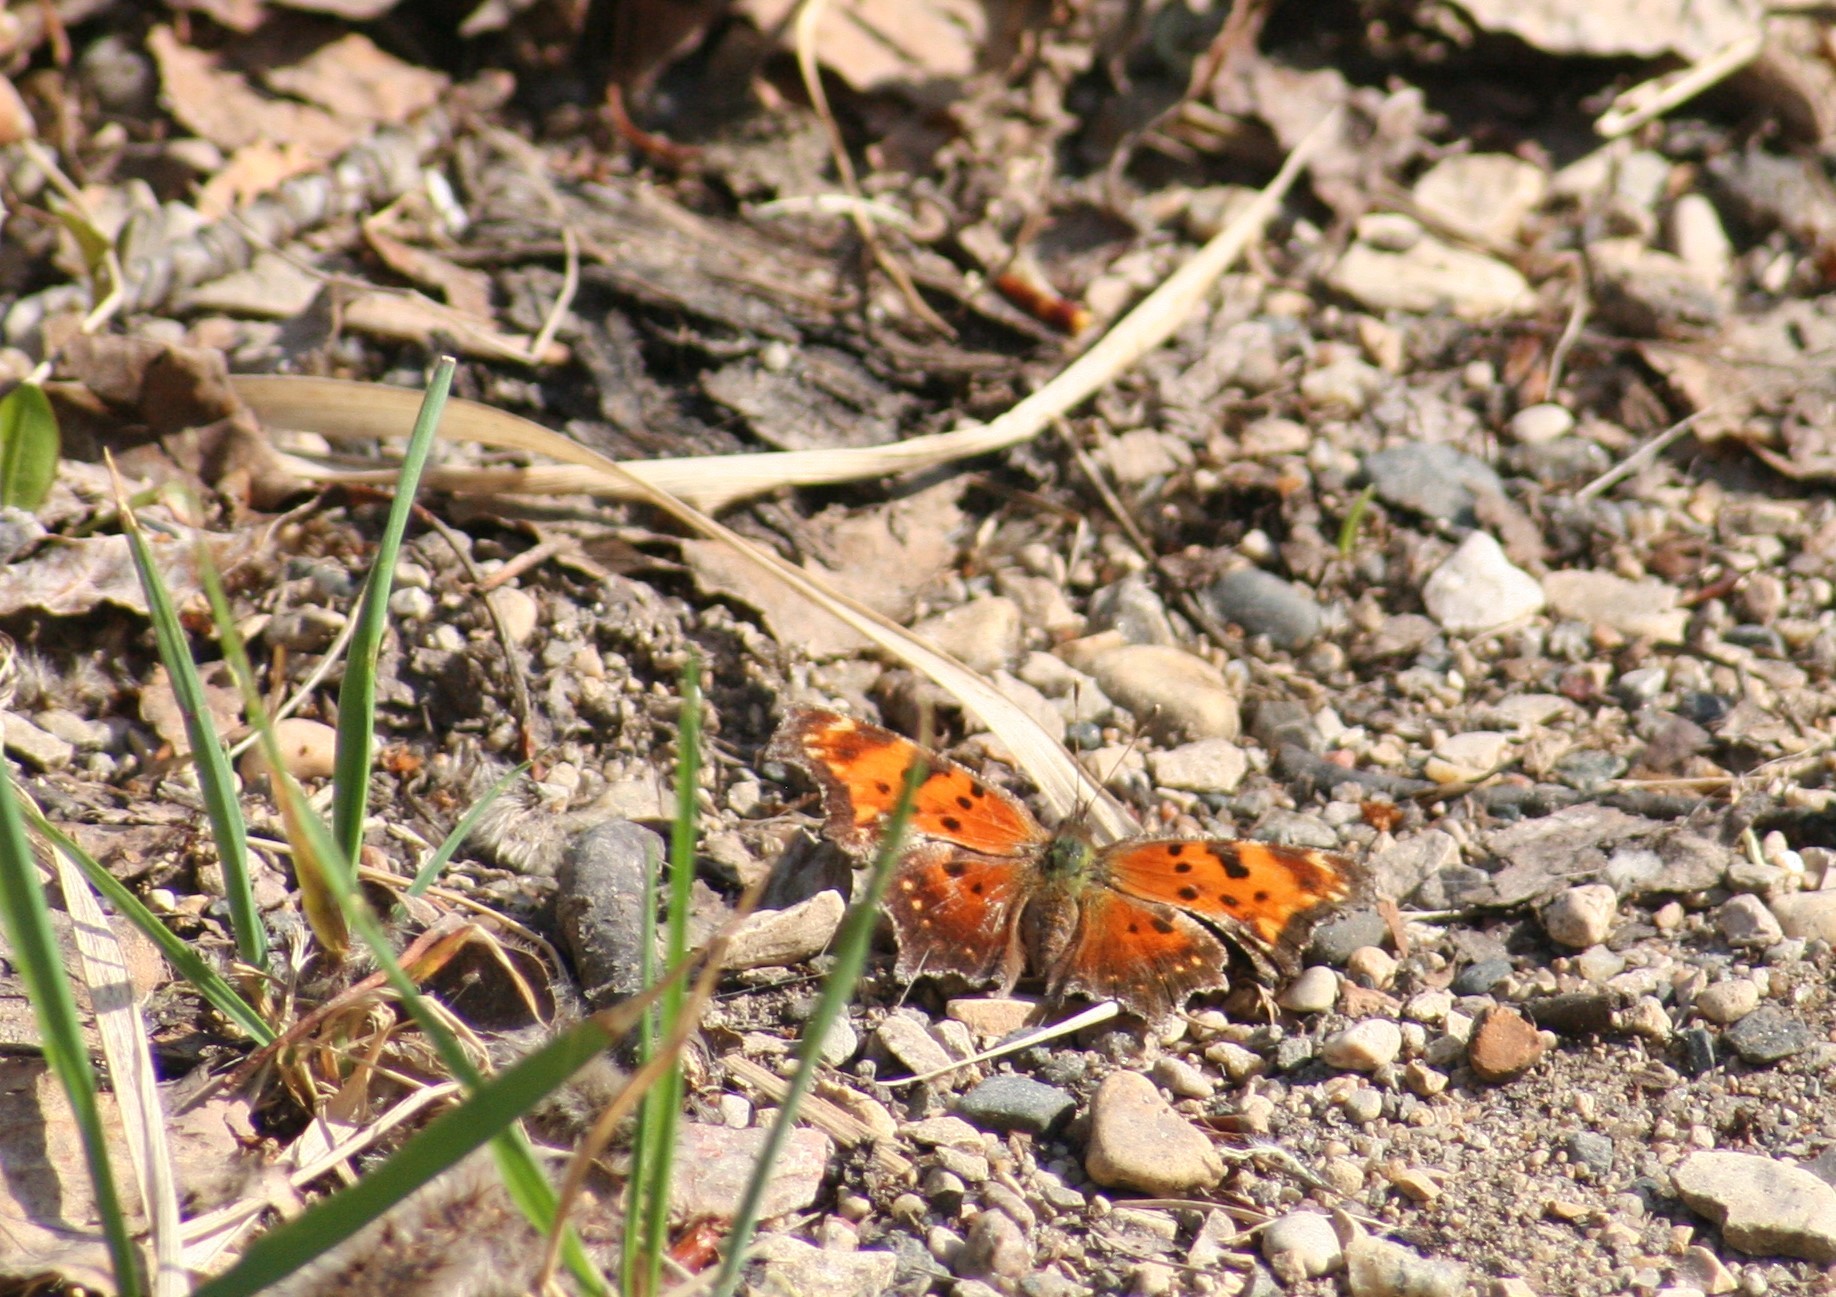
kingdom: Animalia
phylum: Arthropoda
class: Insecta
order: Lepidoptera
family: Nymphalidae
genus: Polygonia
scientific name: Polygonia progne
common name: Gray comma
